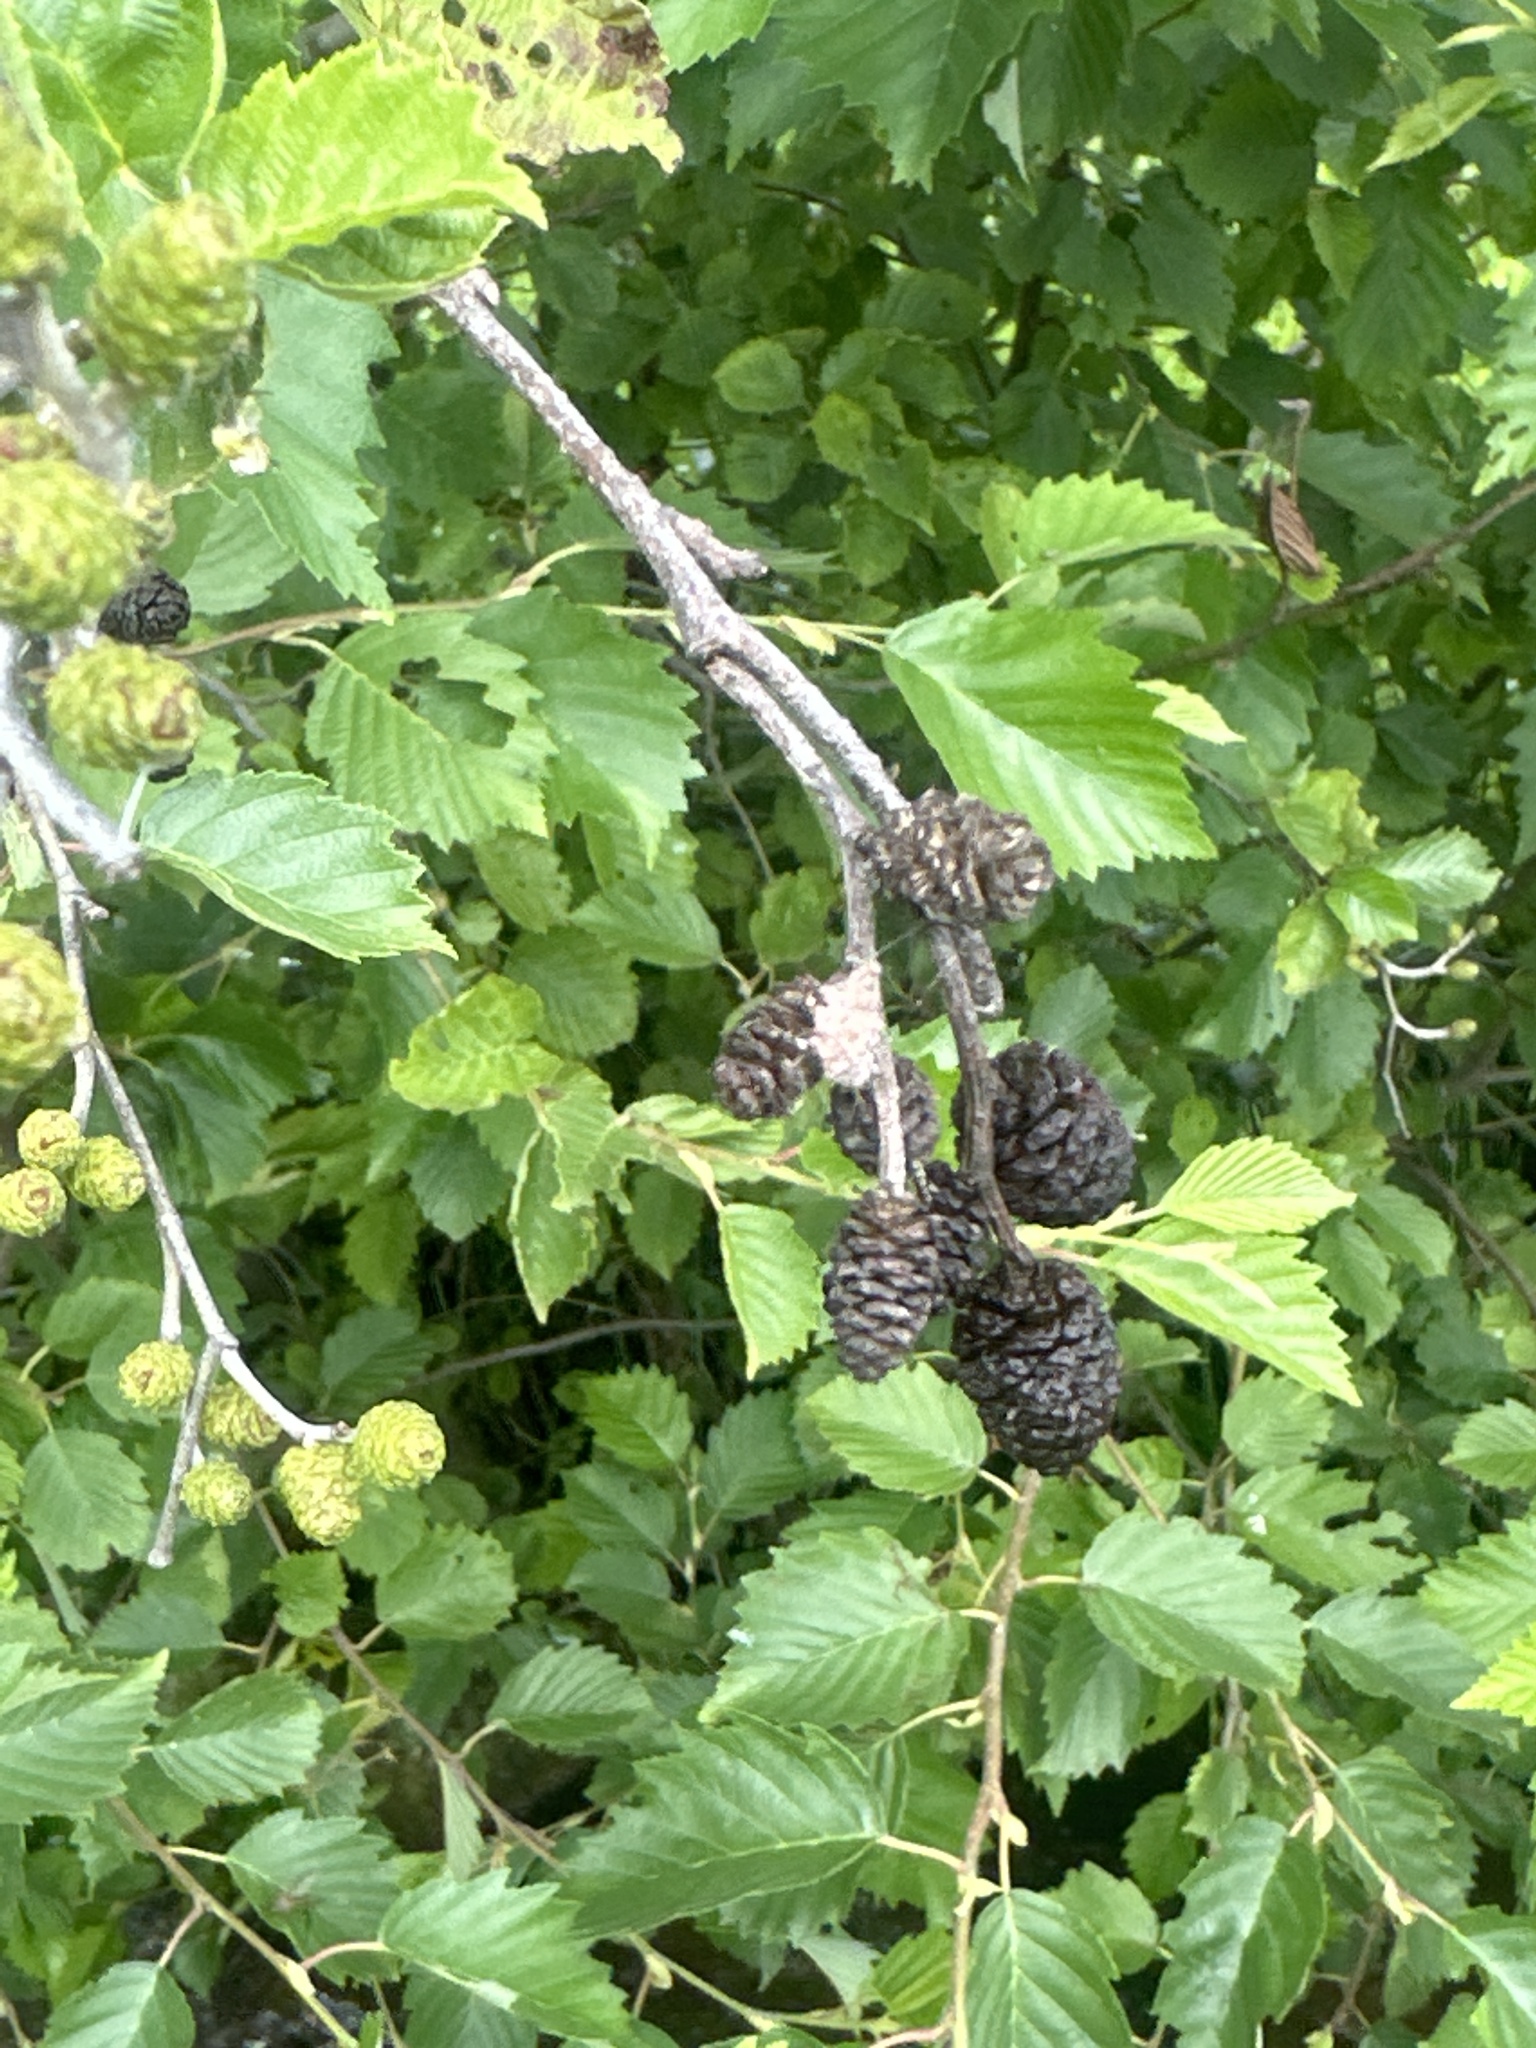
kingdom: Plantae
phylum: Tracheophyta
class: Magnoliopsida
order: Fagales
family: Betulaceae
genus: Alnus
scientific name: Alnus incana
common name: Grey alder
